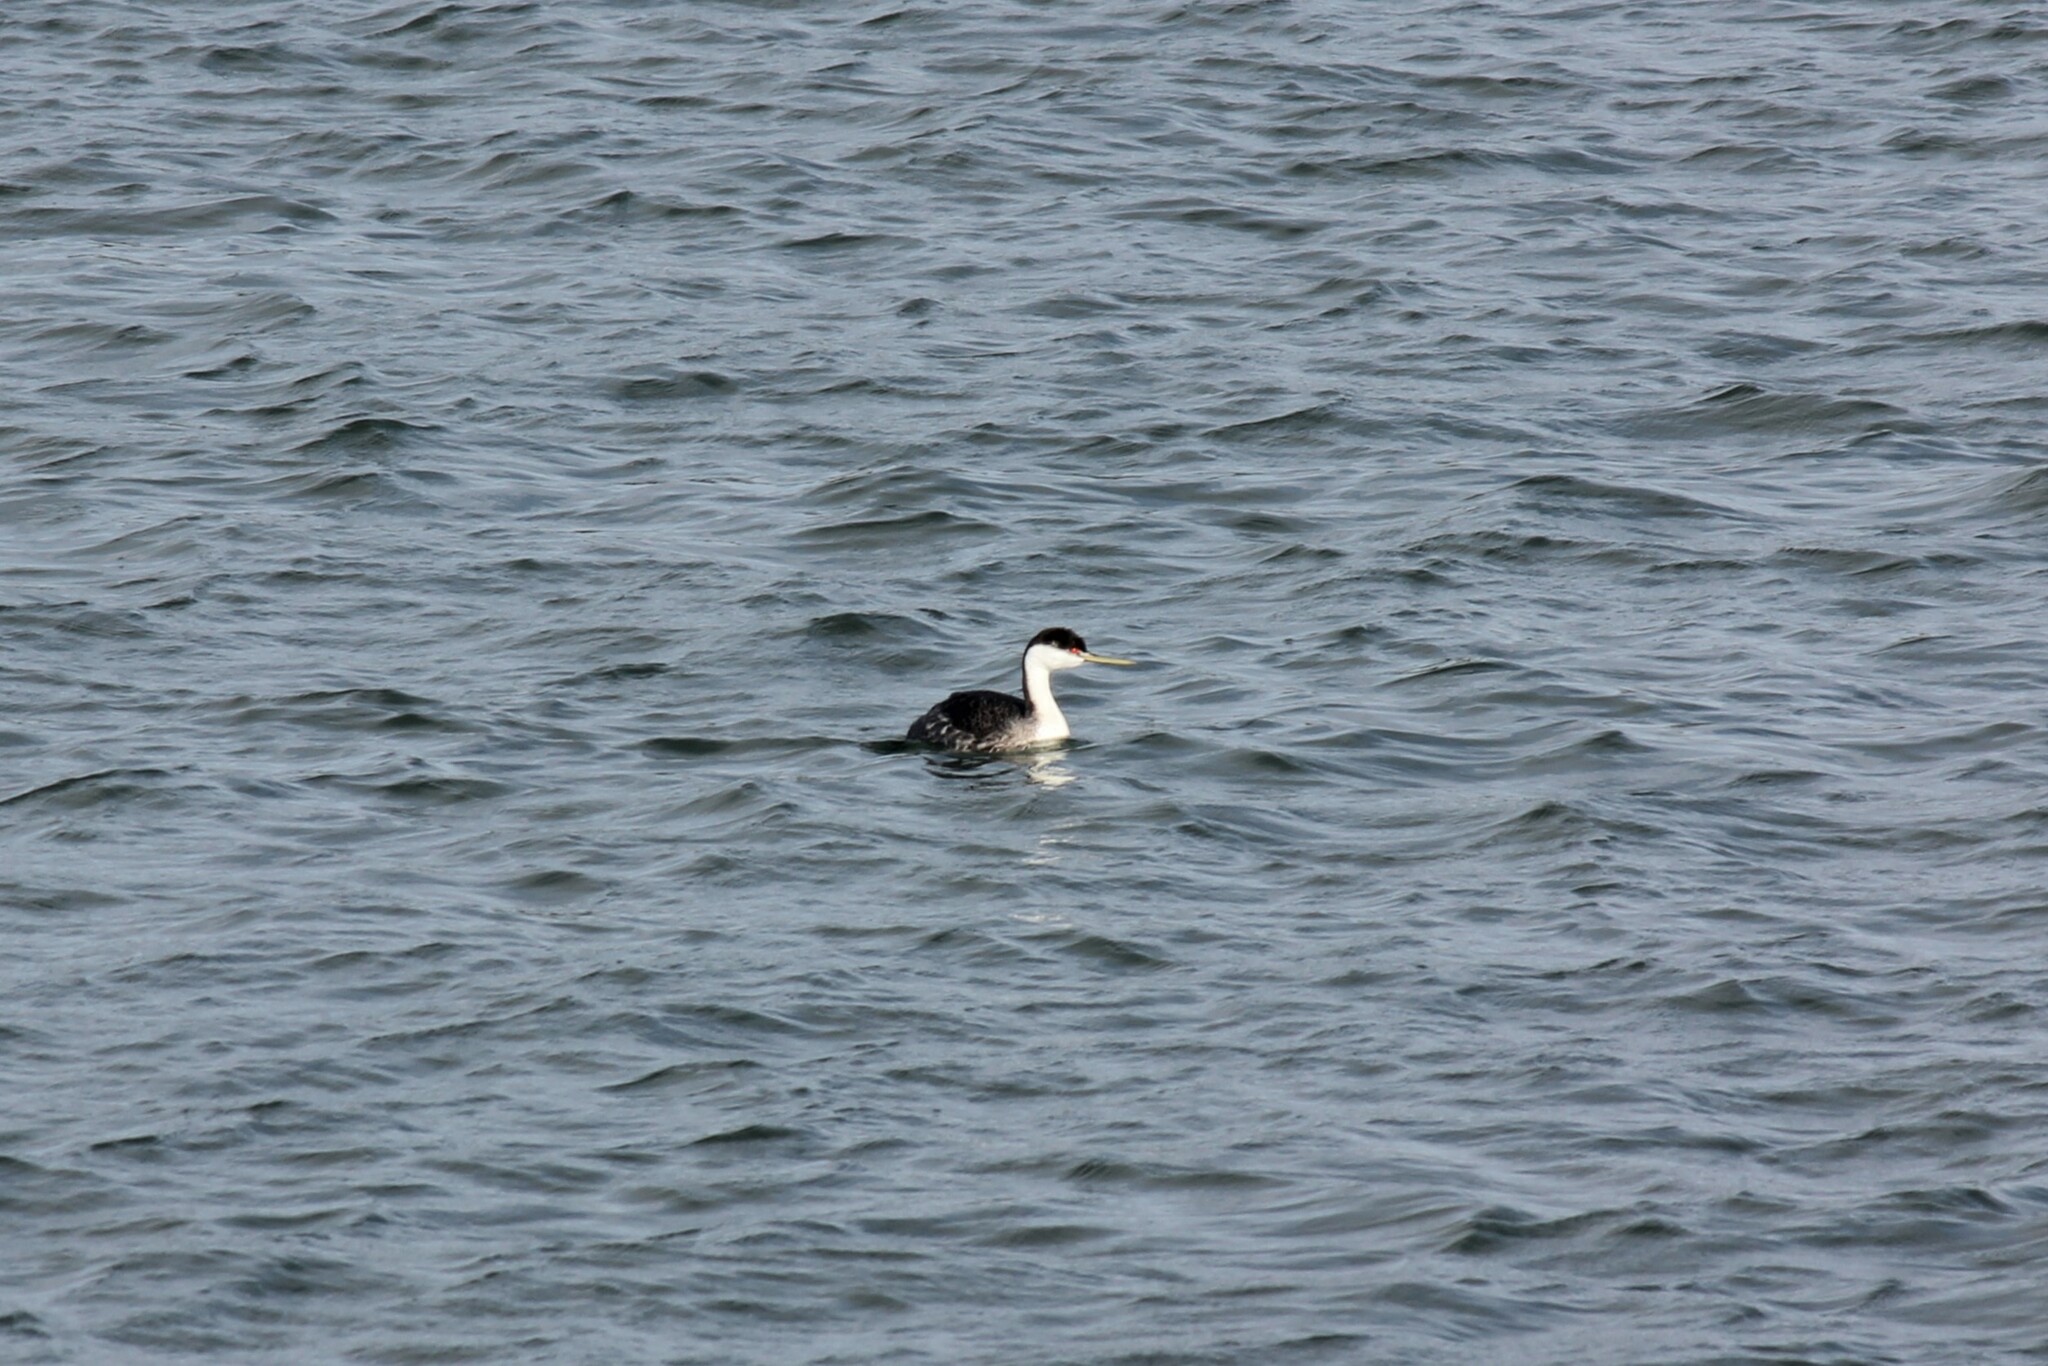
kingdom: Animalia
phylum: Chordata
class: Aves
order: Podicipediformes
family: Podicipedidae
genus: Aechmophorus
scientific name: Aechmophorus occidentalis
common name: Western grebe
